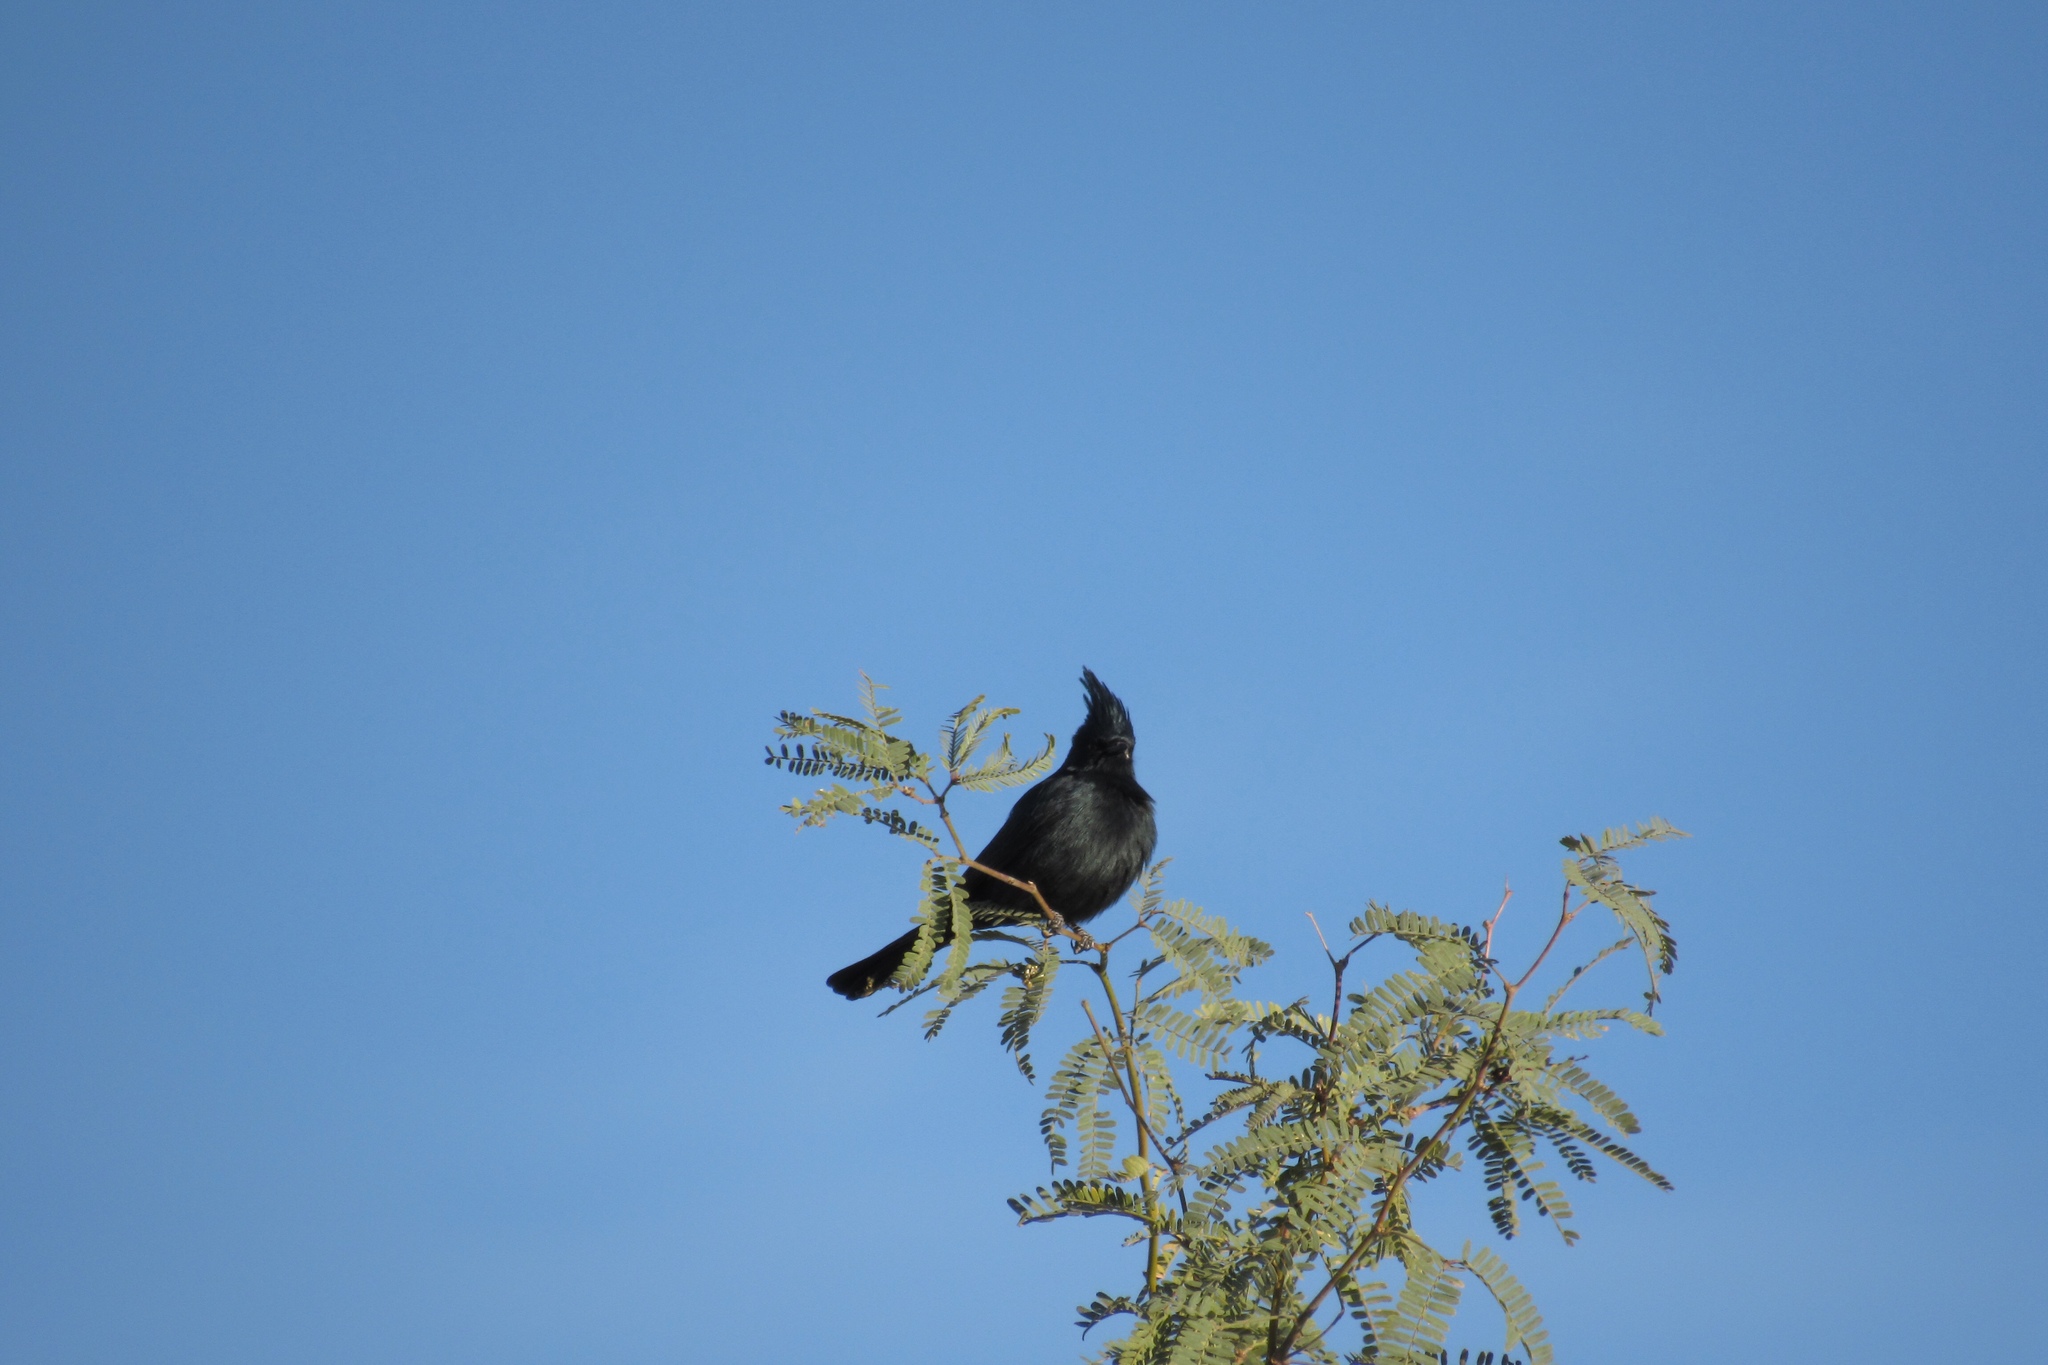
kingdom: Animalia
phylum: Chordata
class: Aves
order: Passeriformes
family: Ptilogonatidae
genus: Phainopepla
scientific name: Phainopepla nitens
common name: Phainopepla
